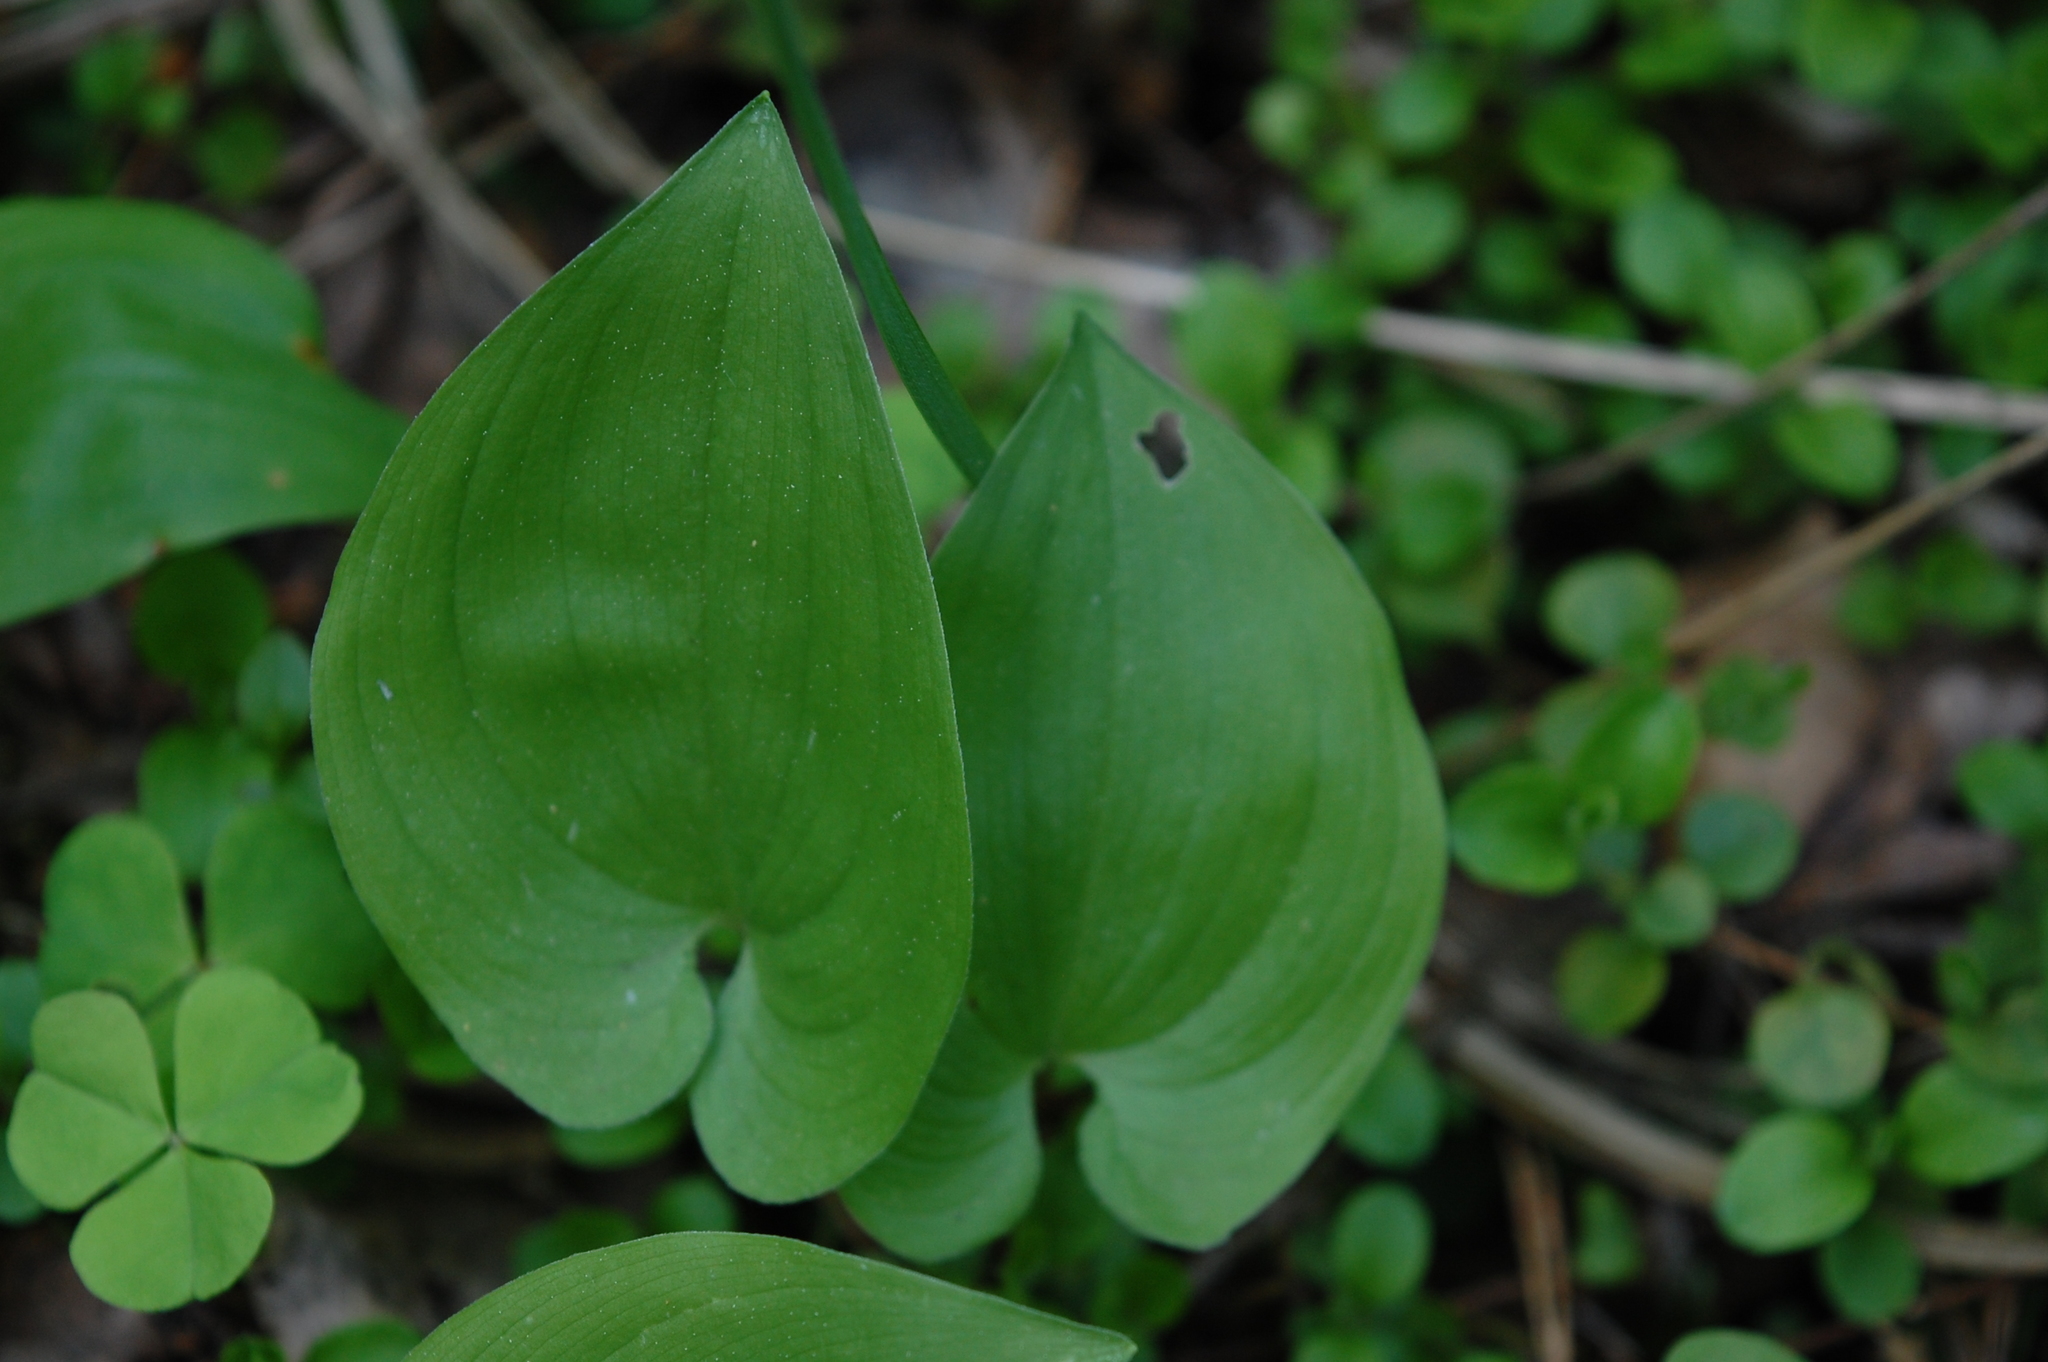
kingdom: Plantae
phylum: Tracheophyta
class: Liliopsida
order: Asparagales
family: Asparagaceae
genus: Maianthemum
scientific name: Maianthemum bifolium
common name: May lily
